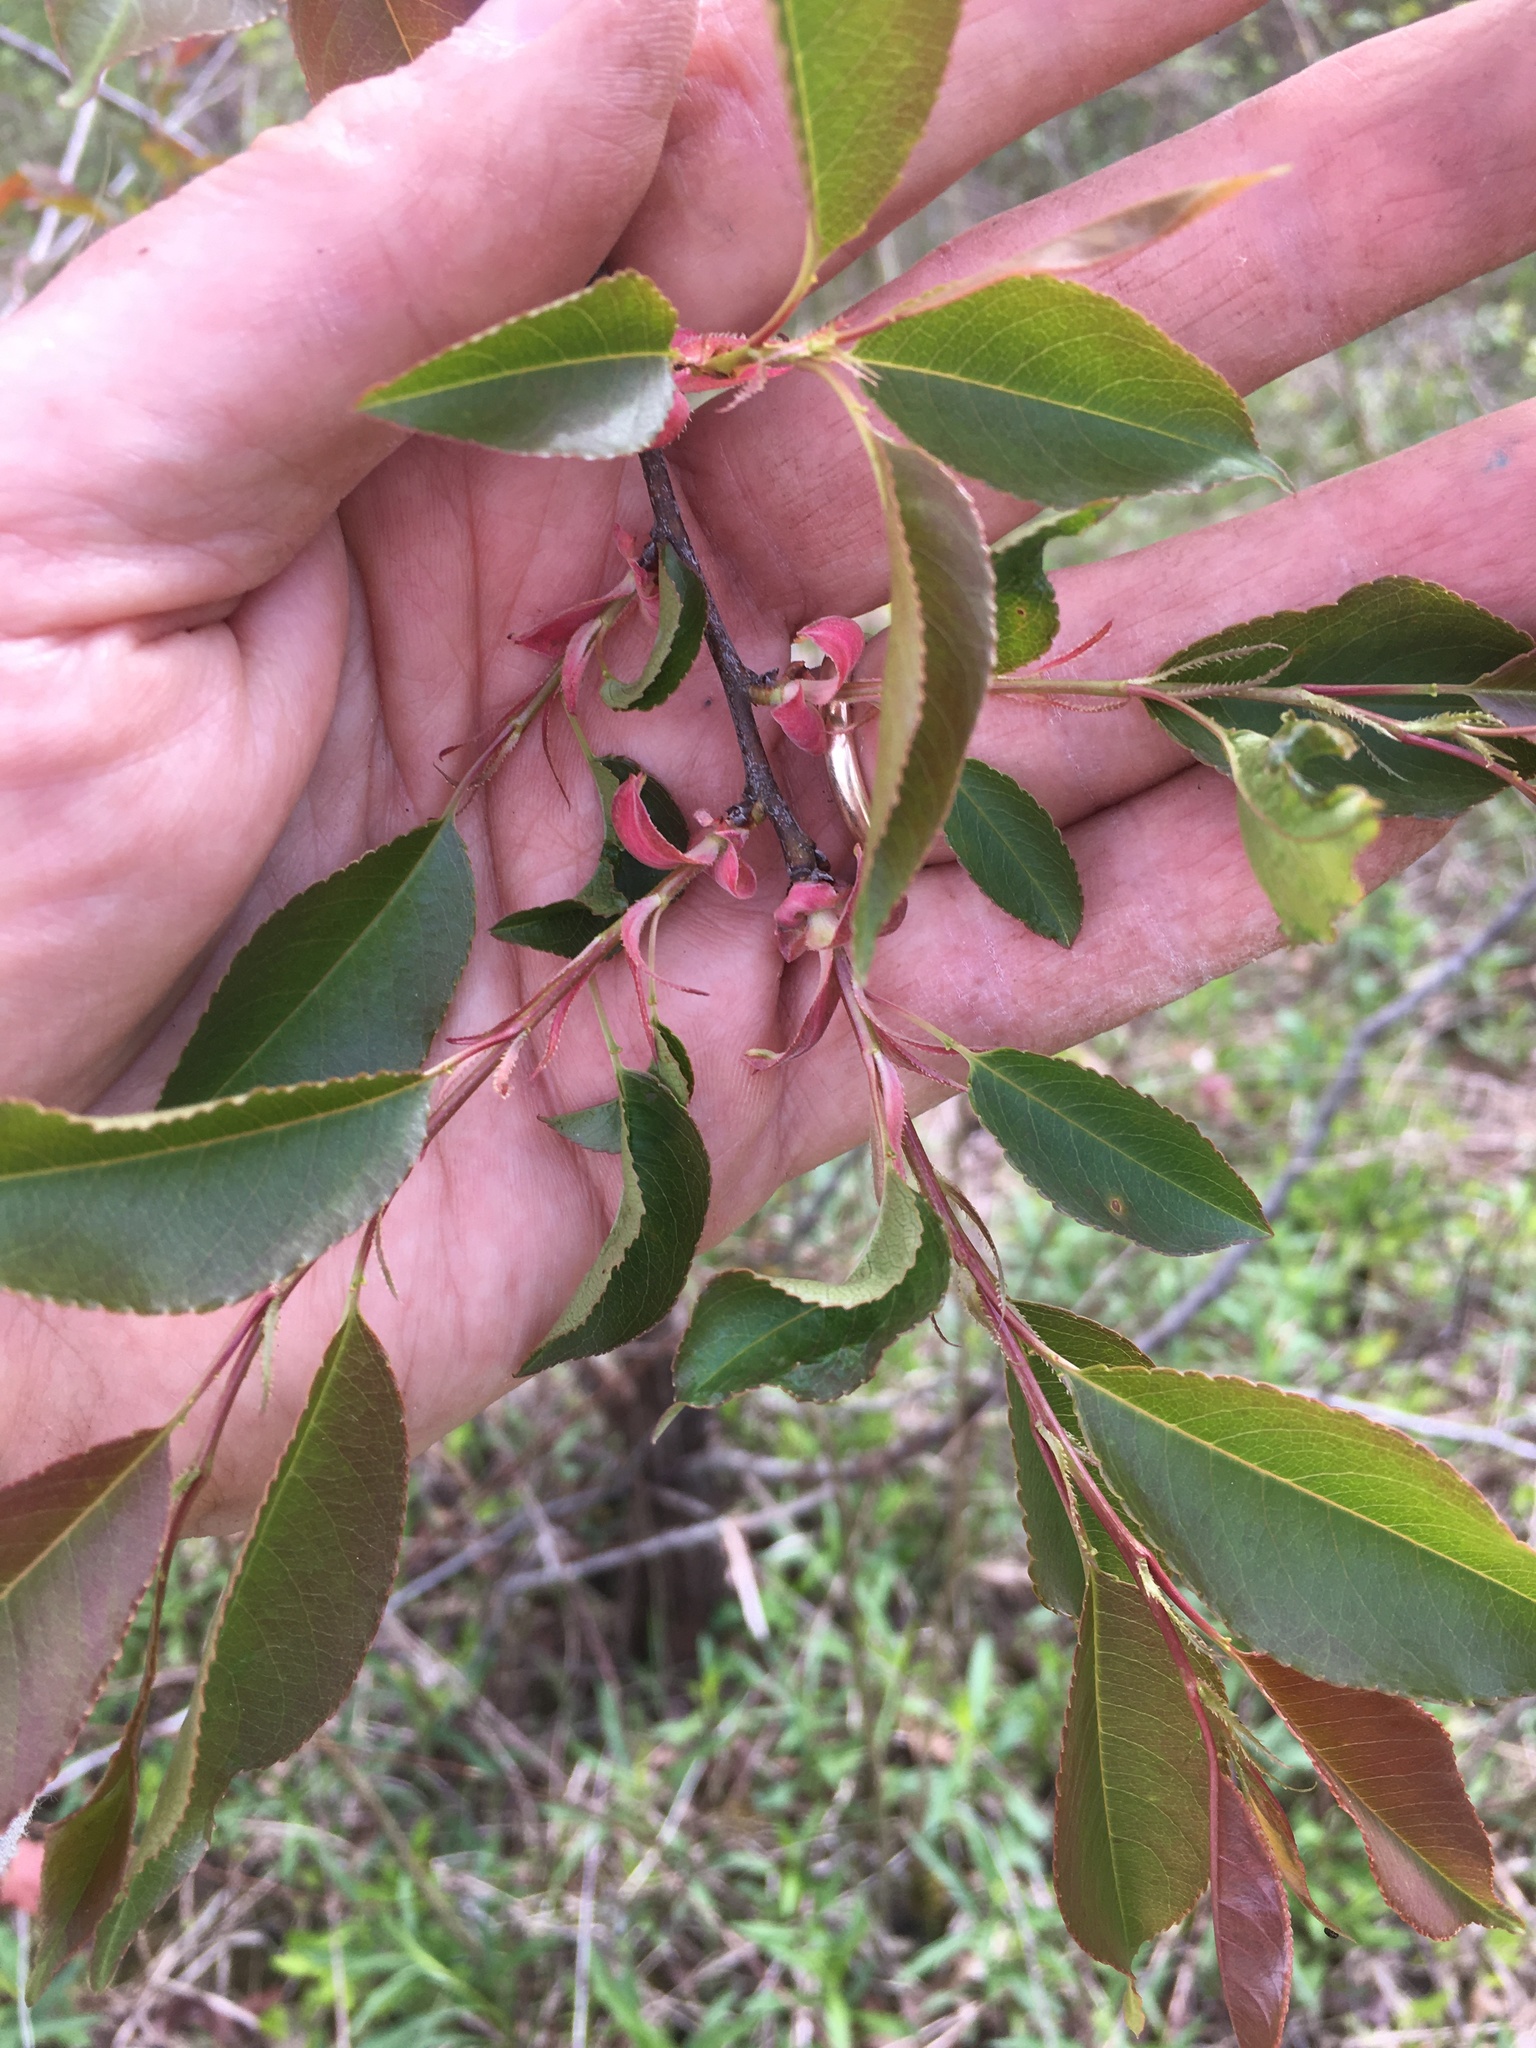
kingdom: Plantae
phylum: Tracheophyta
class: Magnoliopsida
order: Rosales
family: Rosaceae
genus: Prunus
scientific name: Prunus serotina
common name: Black cherry
